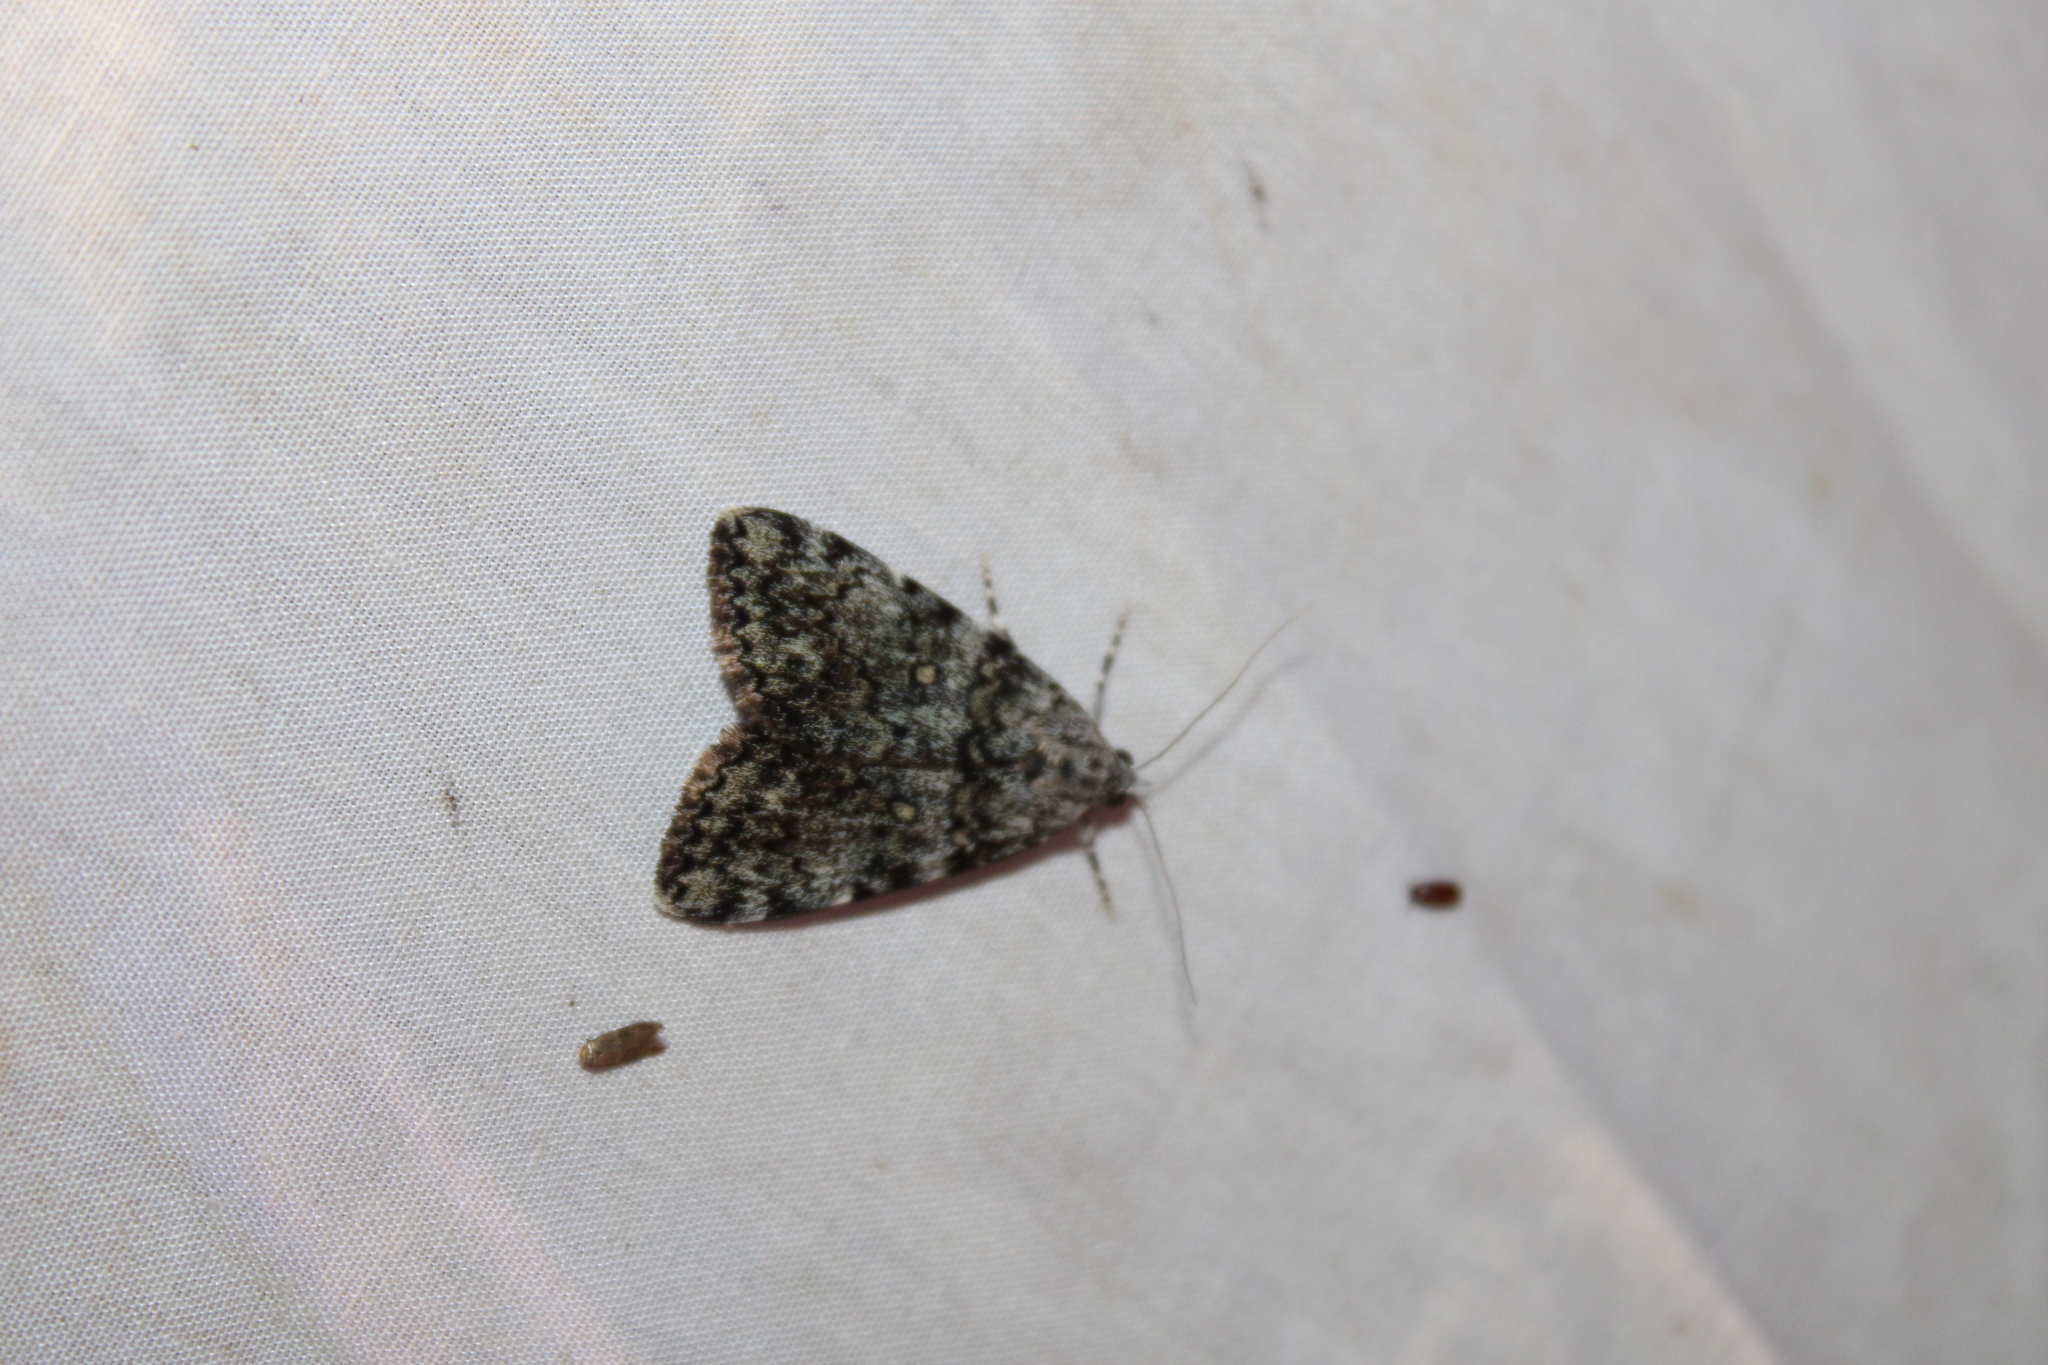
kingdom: Animalia
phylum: Arthropoda
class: Insecta
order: Lepidoptera
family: Erebidae
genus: Catocala
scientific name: Catocala lineella
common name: Little lined underwing
